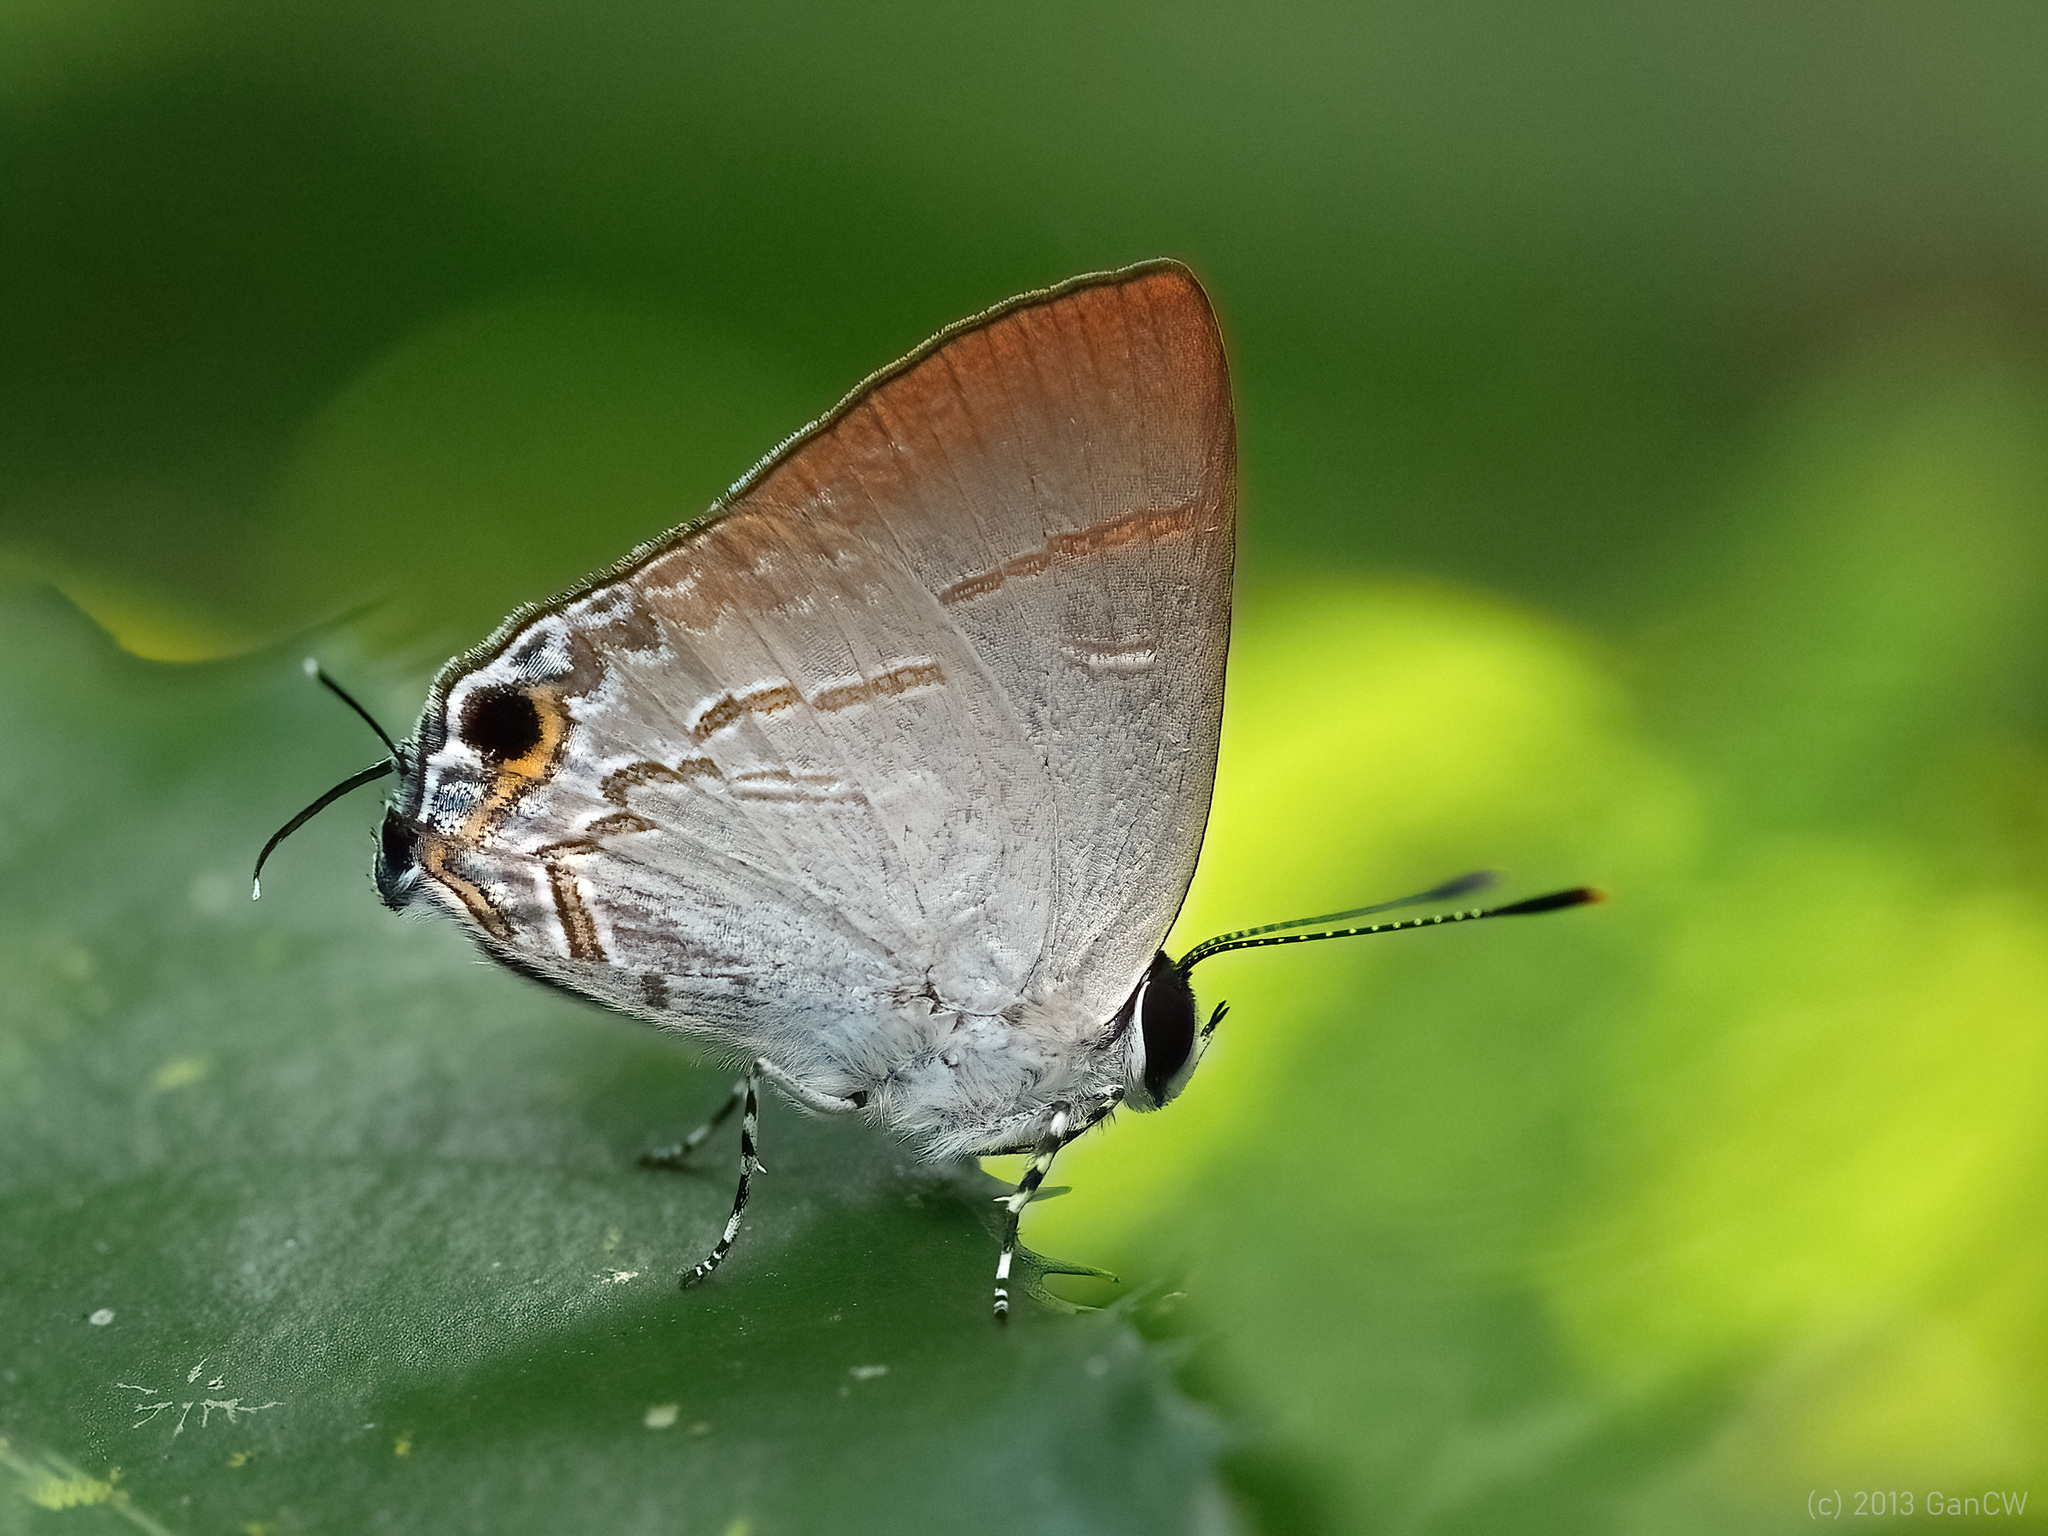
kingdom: Animalia
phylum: Arthropoda
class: Insecta
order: Lepidoptera
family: Lycaenidae
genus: Sinthusa
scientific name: Sinthusa nasaka
